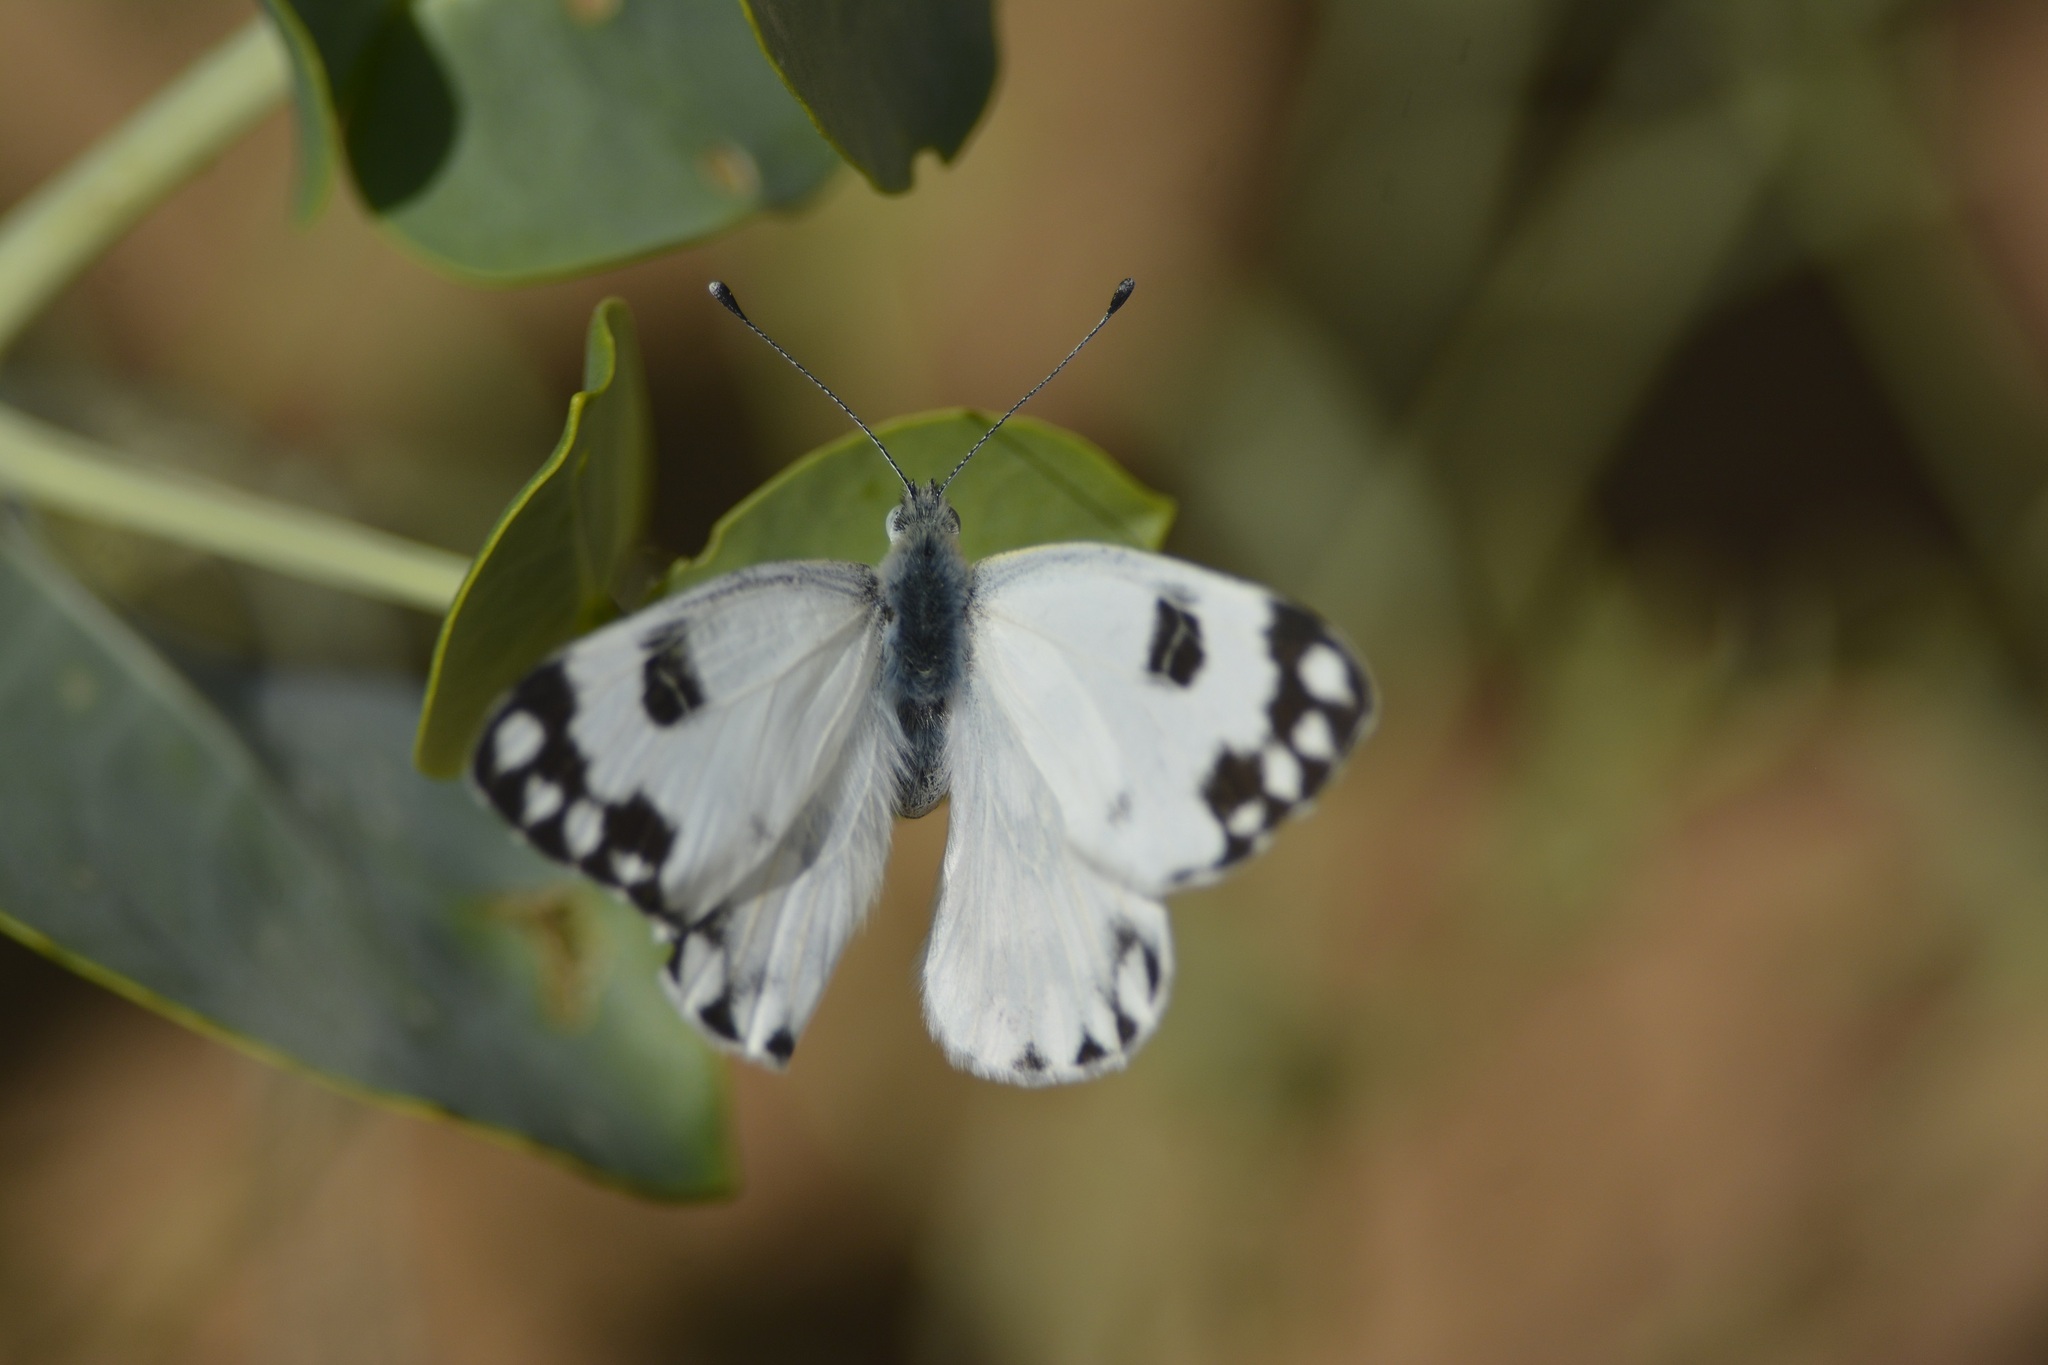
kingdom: Animalia
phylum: Arthropoda
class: Insecta
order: Lepidoptera
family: Pieridae
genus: Pontia
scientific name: Pontia glauconome
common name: Desert bath white
